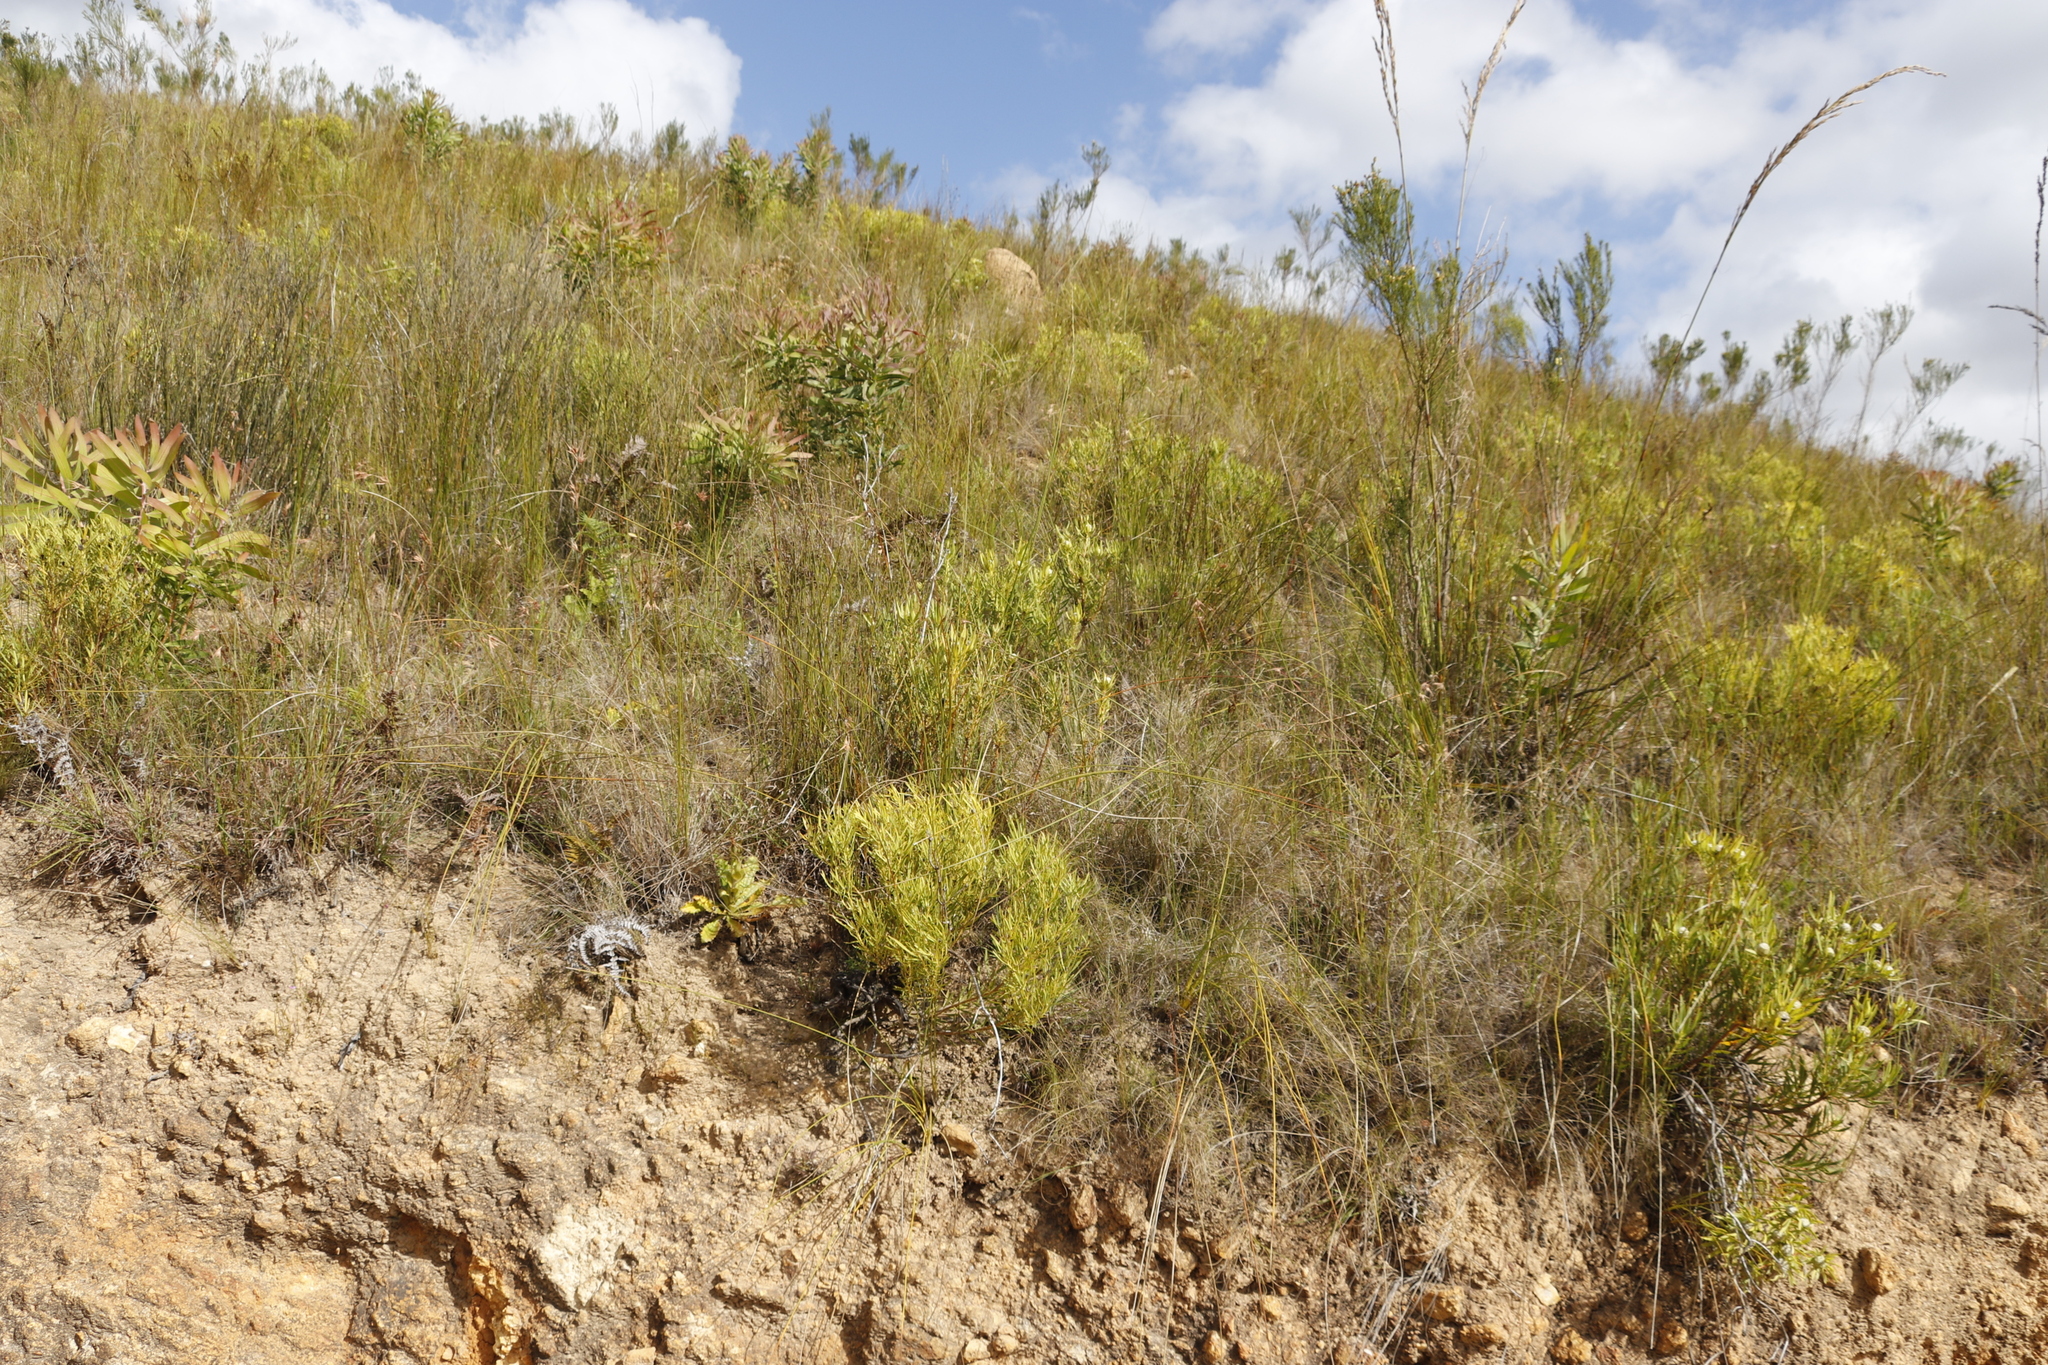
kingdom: Plantae
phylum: Tracheophyta
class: Magnoliopsida
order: Proteales
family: Proteaceae
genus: Leucadendron
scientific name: Leucadendron salignum
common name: Common sunshine conebush
